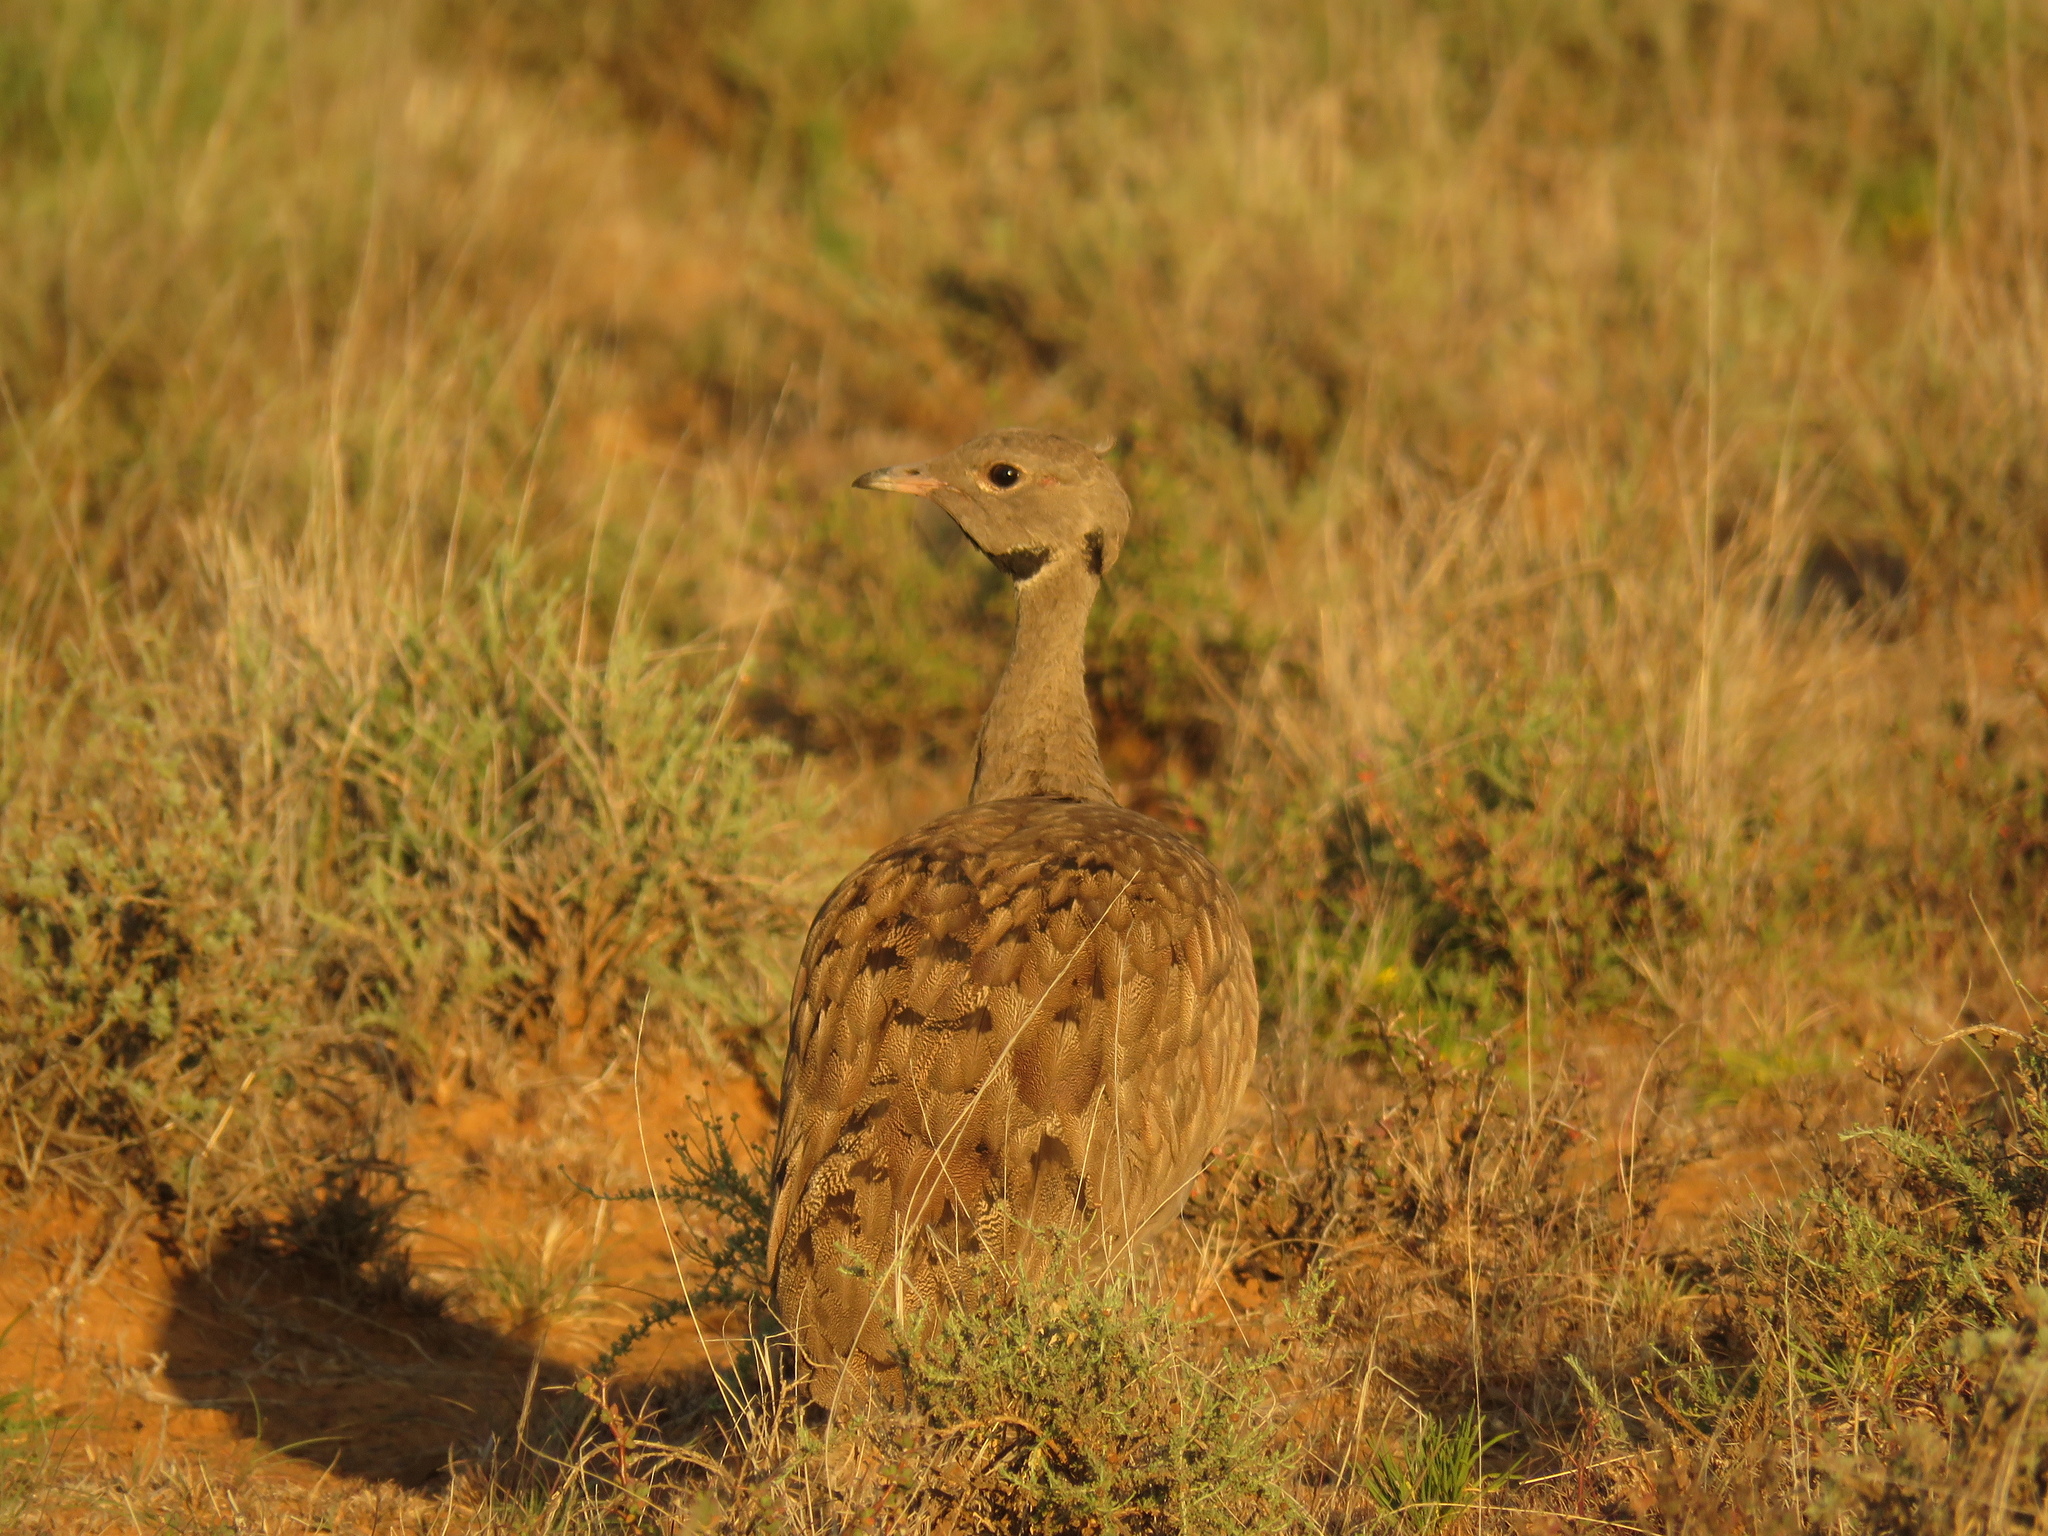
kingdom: Animalia
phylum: Chordata
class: Aves
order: Otidiformes
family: Otididae
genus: Eupodotis
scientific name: Eupodotis vigorsii
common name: Karoo korhaan
